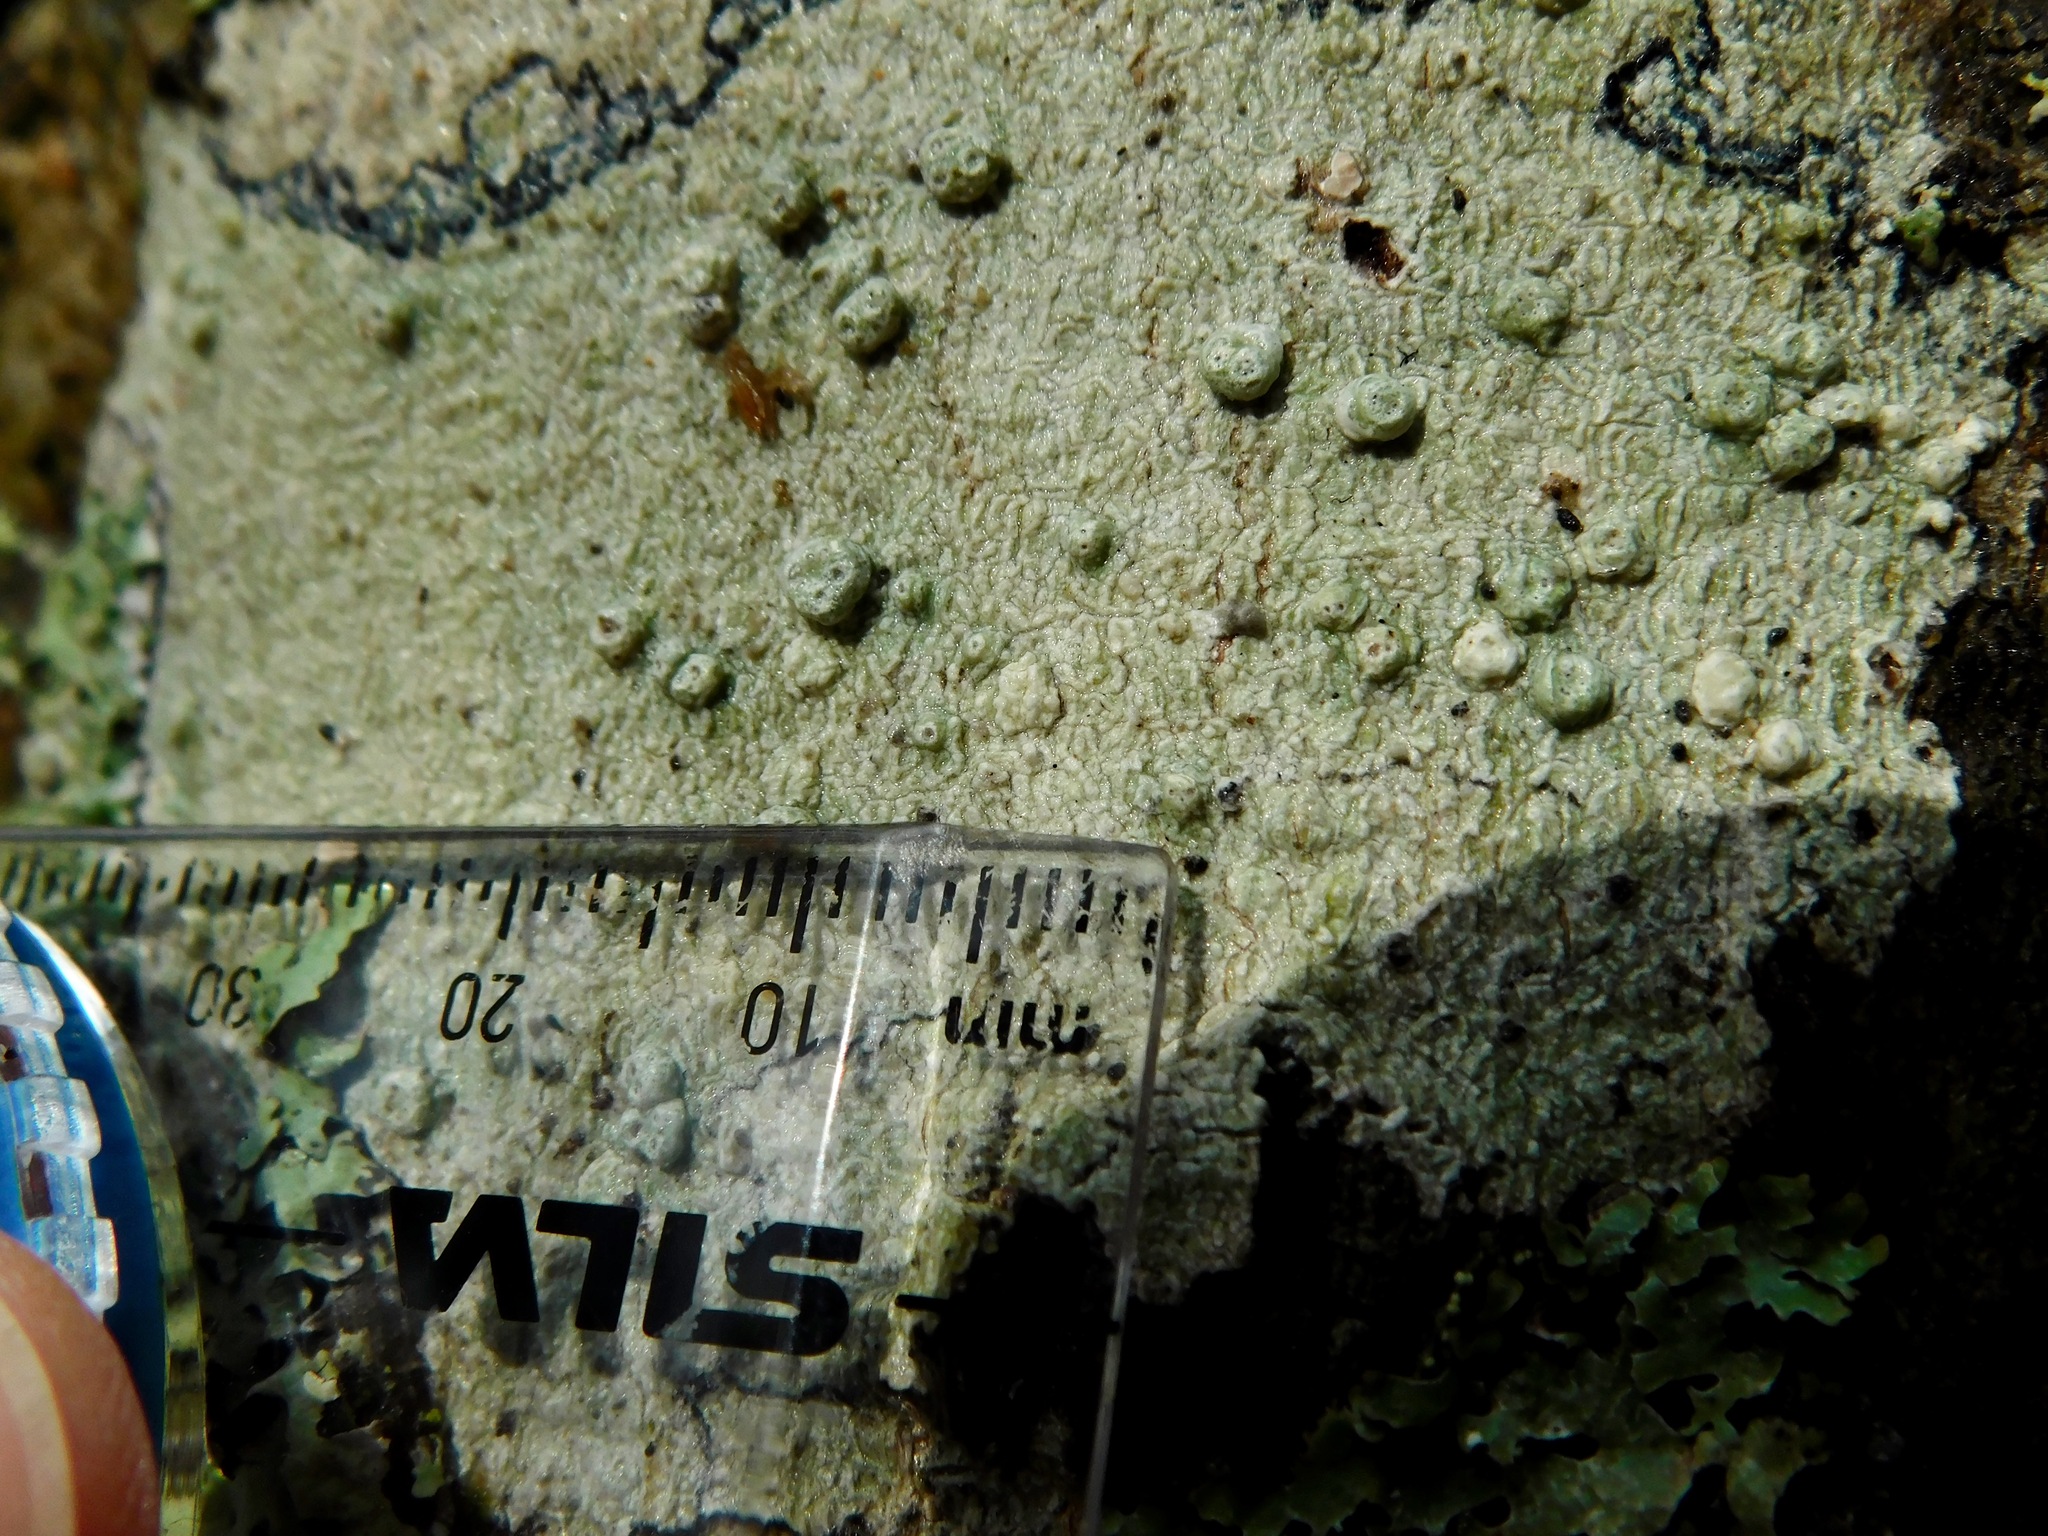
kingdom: Fungi
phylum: Ascomycota
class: Lecanoromycetes
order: Pertusariales
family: Pertusariaceae
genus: Pertusaria
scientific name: Pertusaria tetrathalamia
